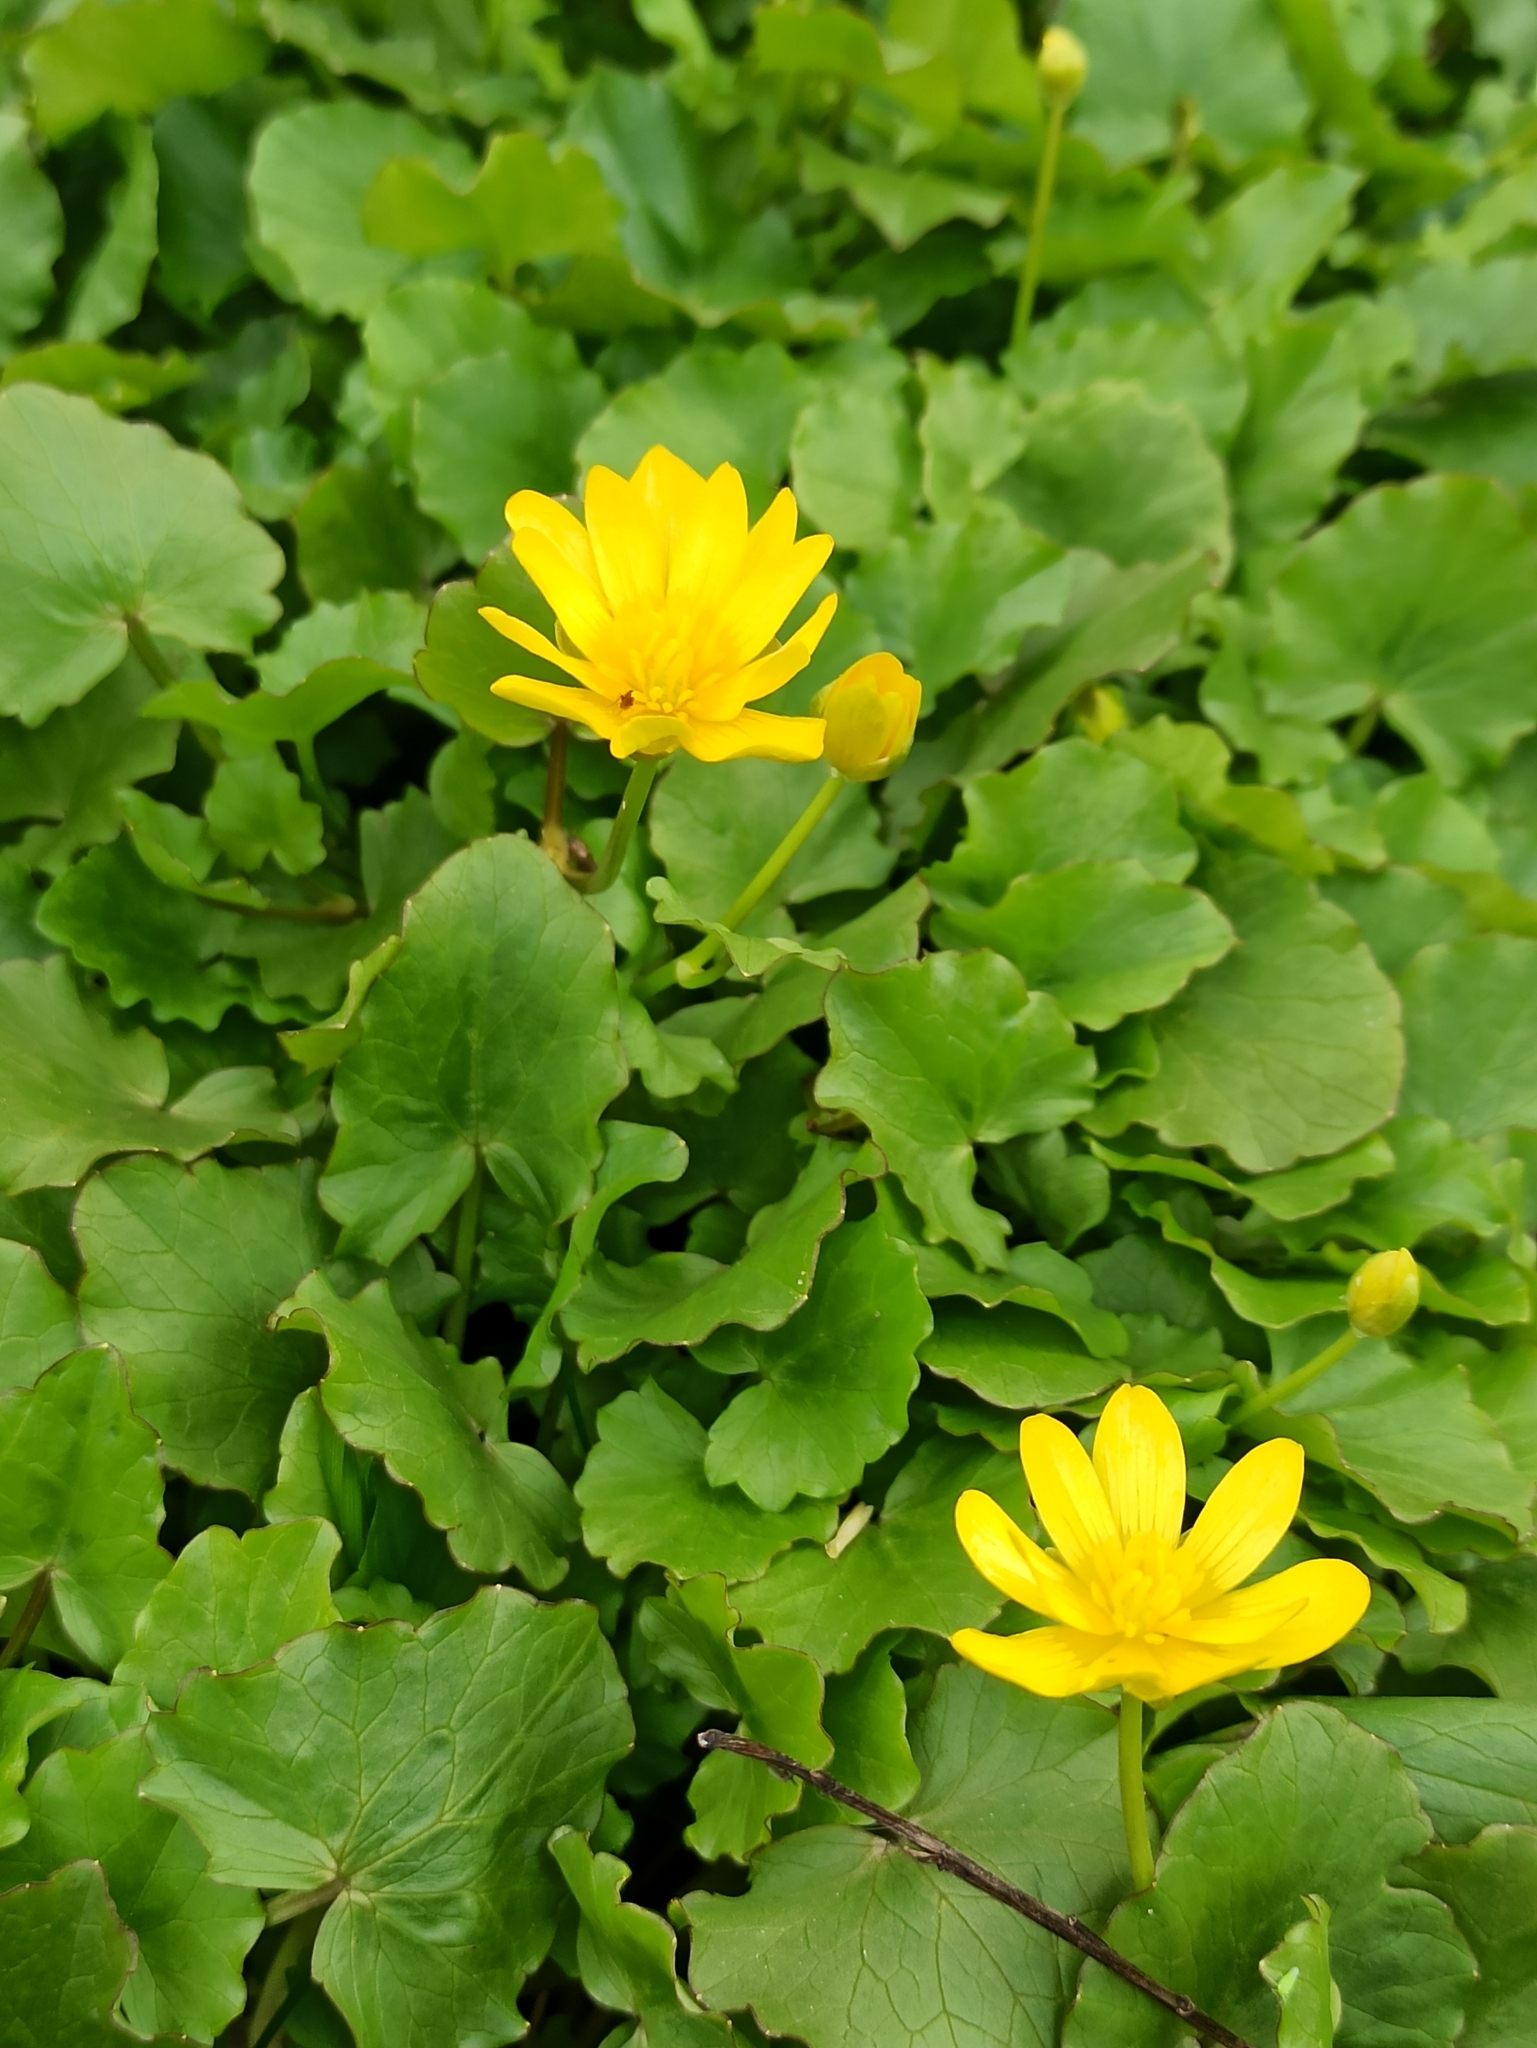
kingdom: Plantae
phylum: Tracheophyta
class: Magnoliopsida
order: Ranunculales
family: Ranunculaceae
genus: Ficaria
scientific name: Ficaria verna
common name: Lesser celandine
